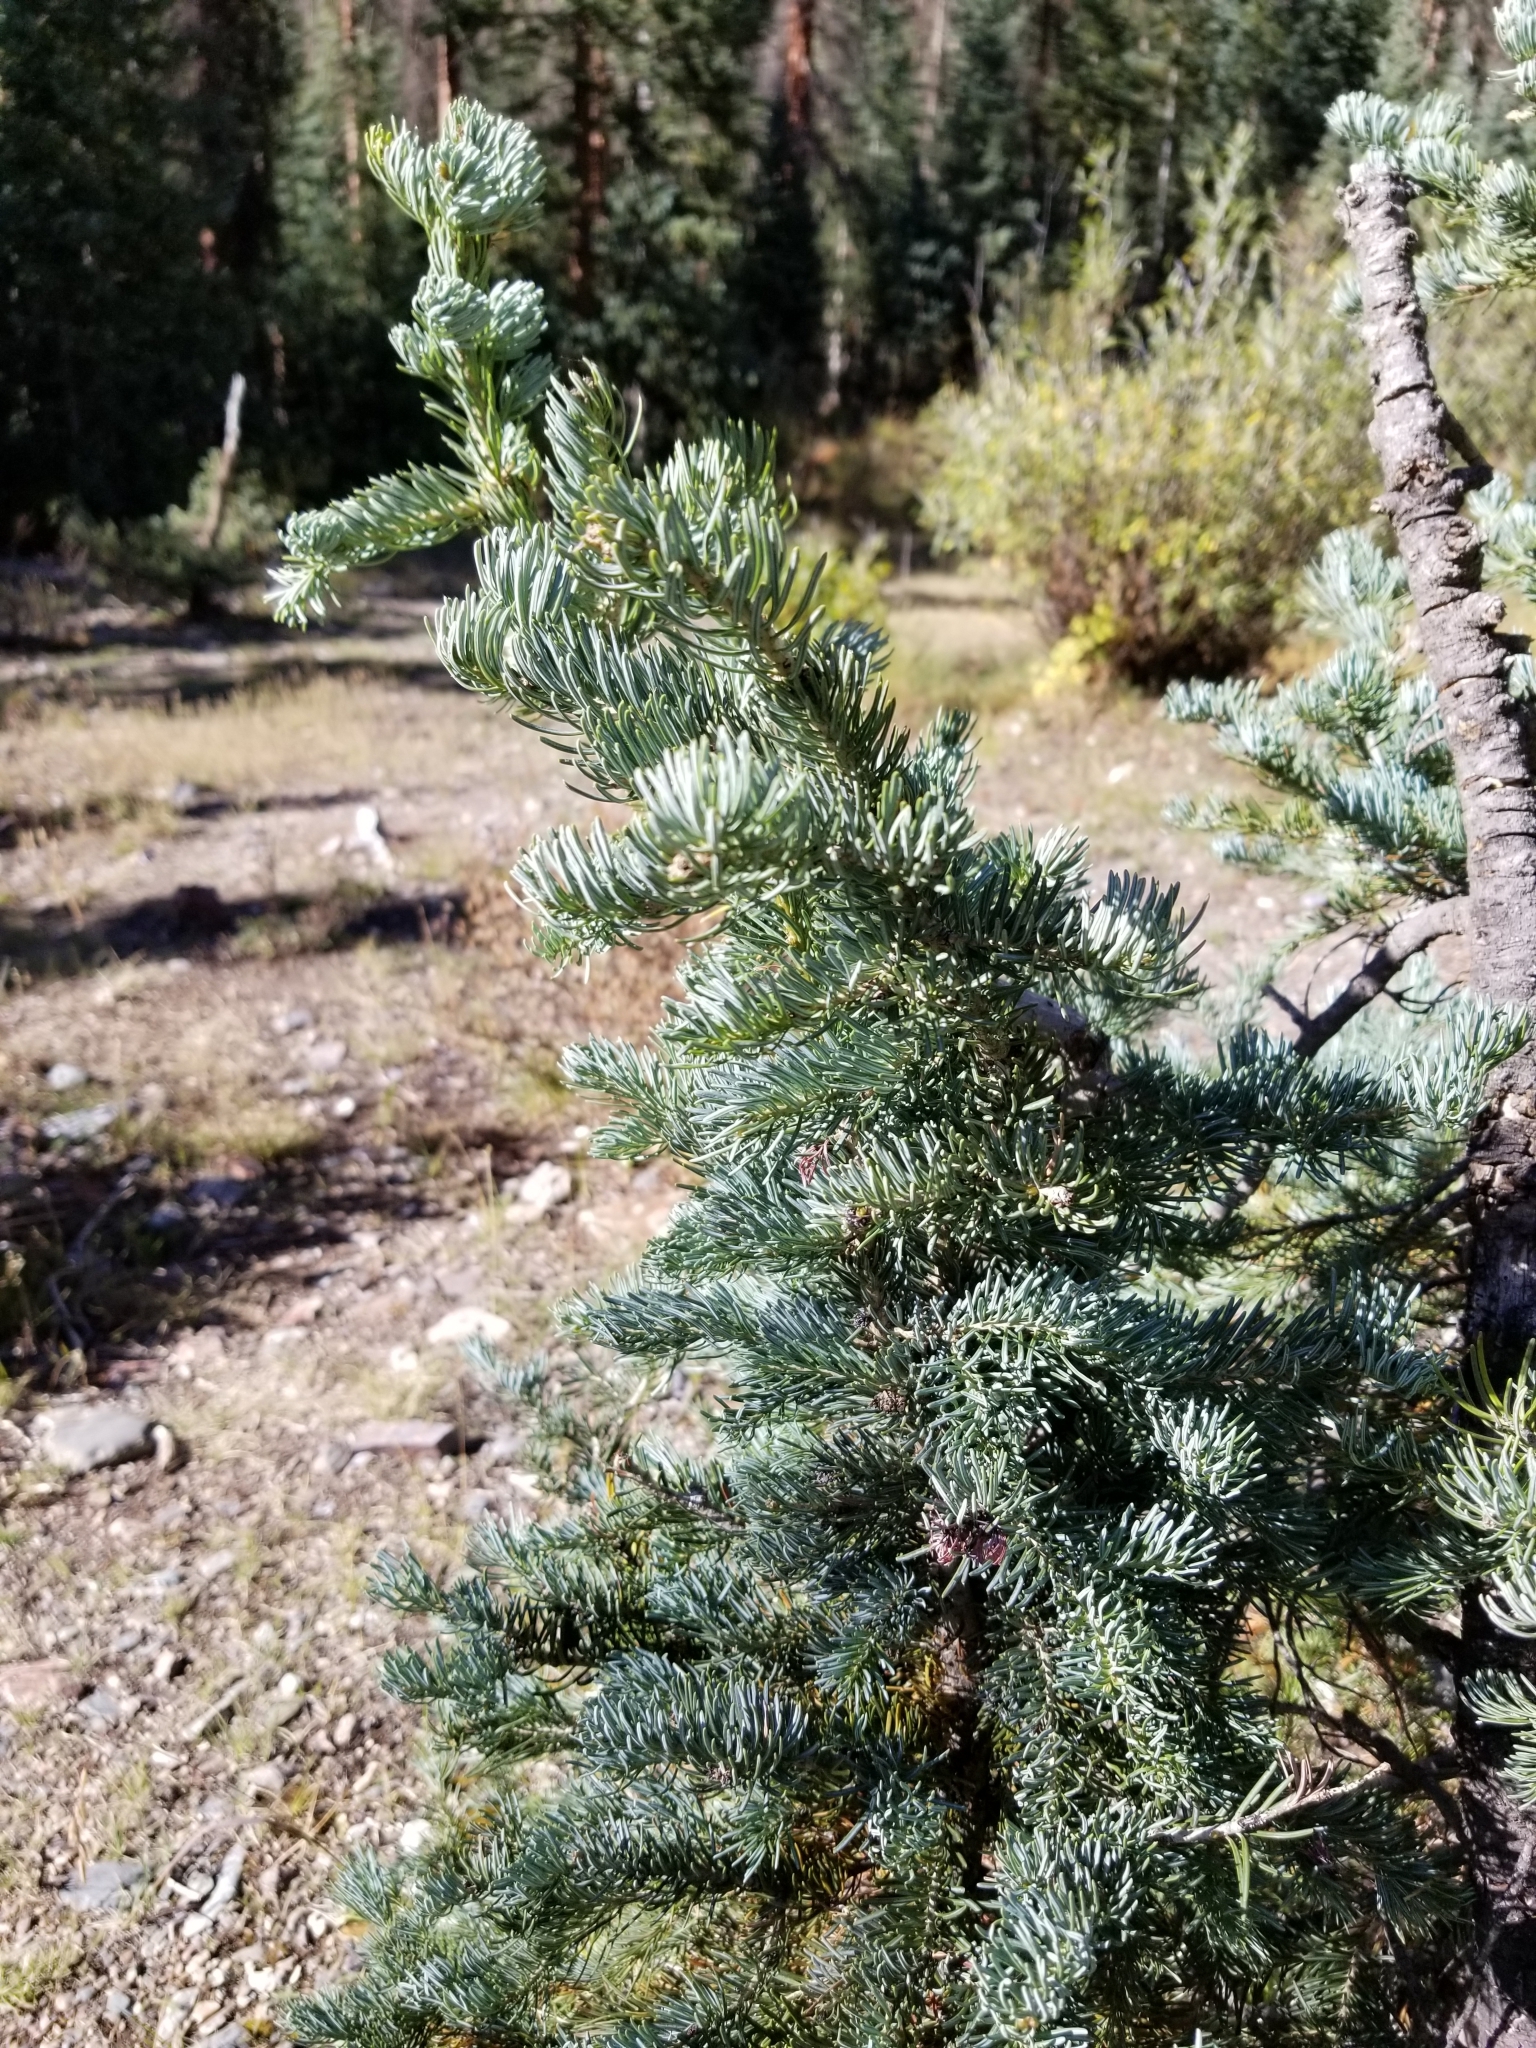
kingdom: Plantae
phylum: Tracheophyta
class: Pinopsida
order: Pinales
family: Pinaceae
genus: Abies
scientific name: Abies lasiocarpa
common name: Subalpine fir
